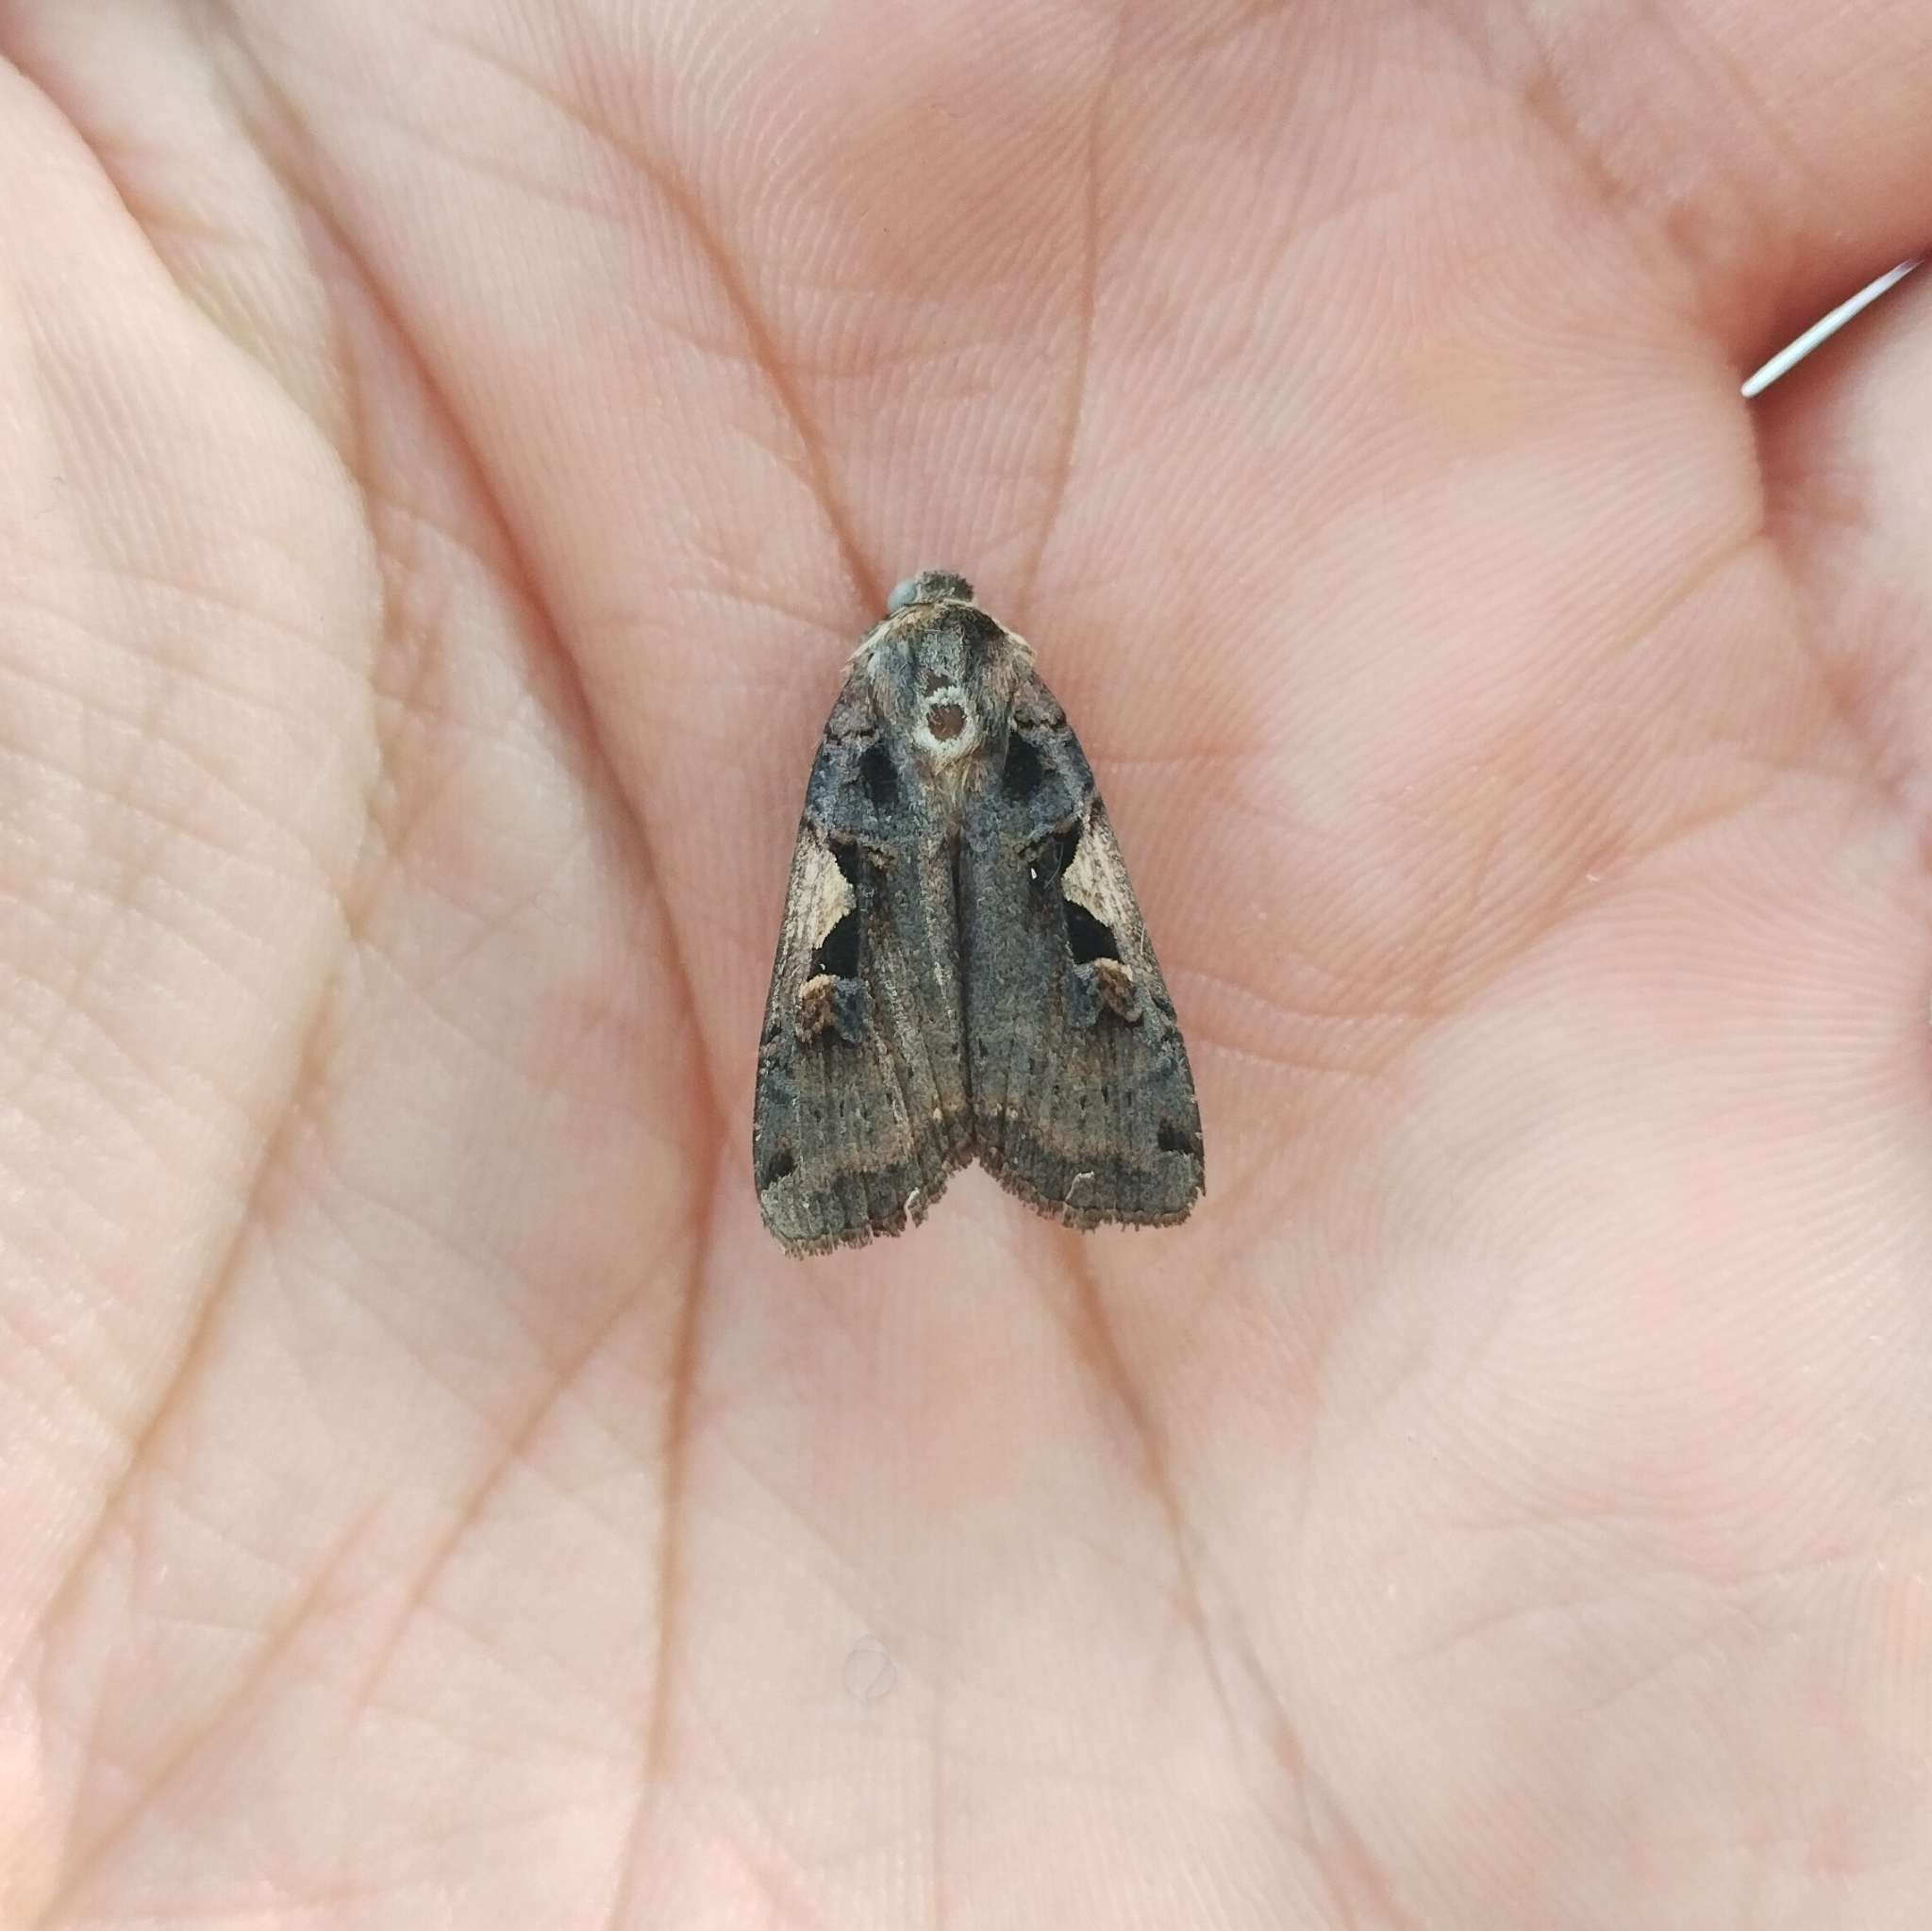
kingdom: Animalia
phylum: Arthropoda
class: Insecta
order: Lepidoptera
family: Noctuidae
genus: Xestia
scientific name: Xestia c-nigrum
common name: Setaceous hebrew character
